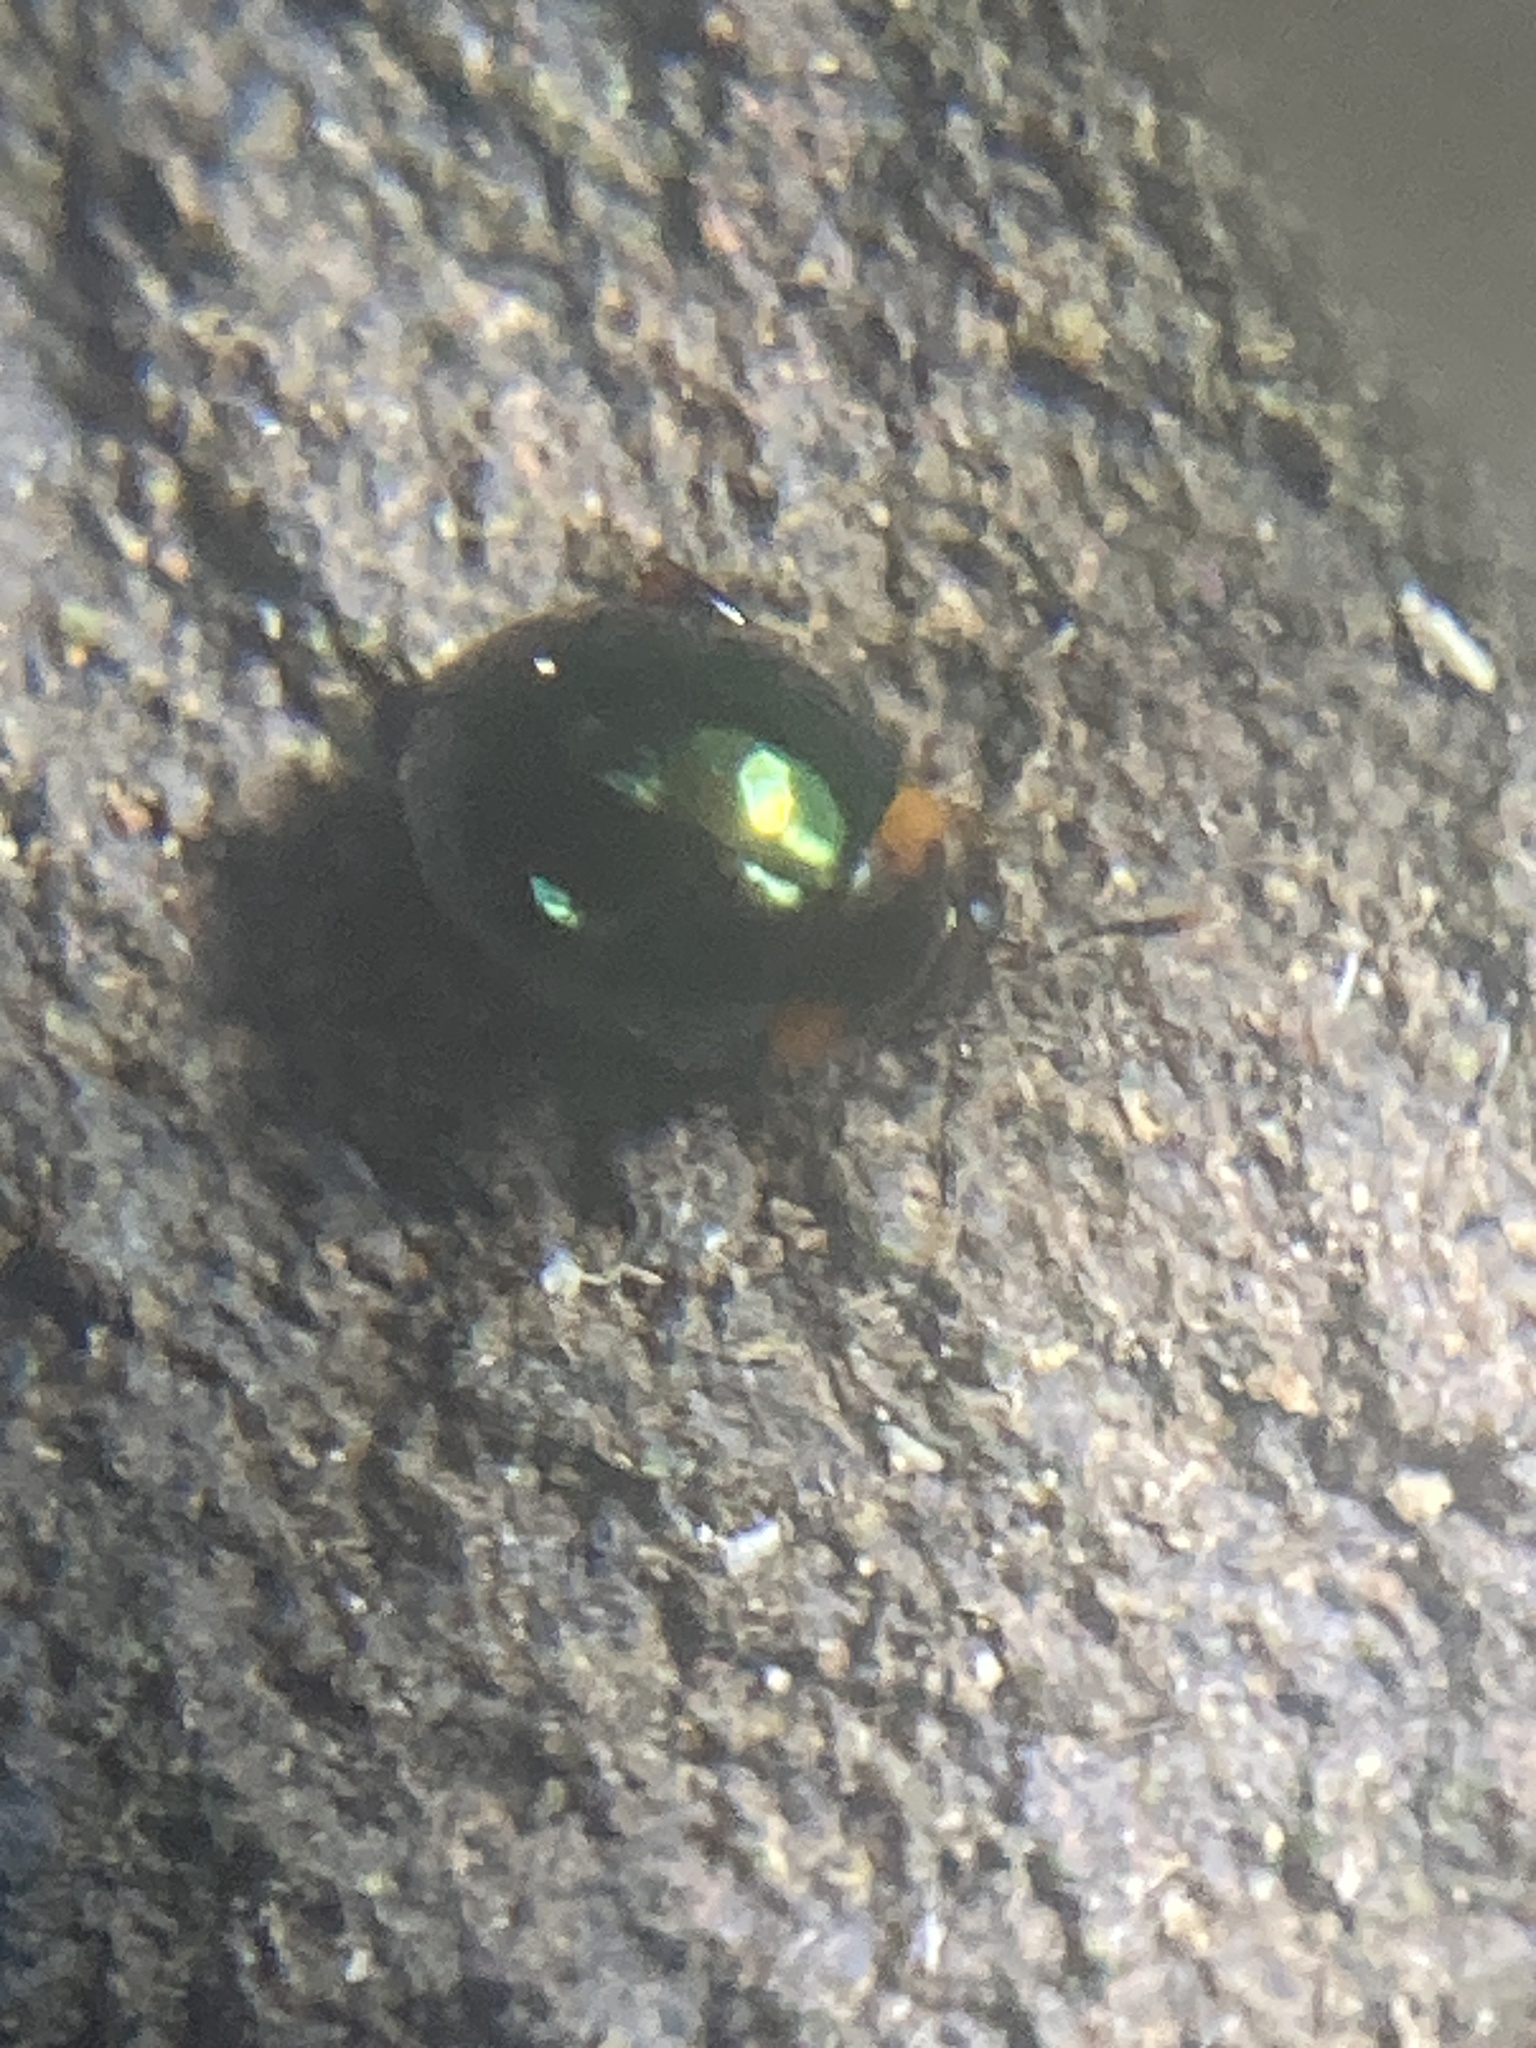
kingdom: Animalia
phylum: Arthropoda
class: Insecta
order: Coleoptera
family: Chrysomelidae
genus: Ivalia
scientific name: Ivalia
